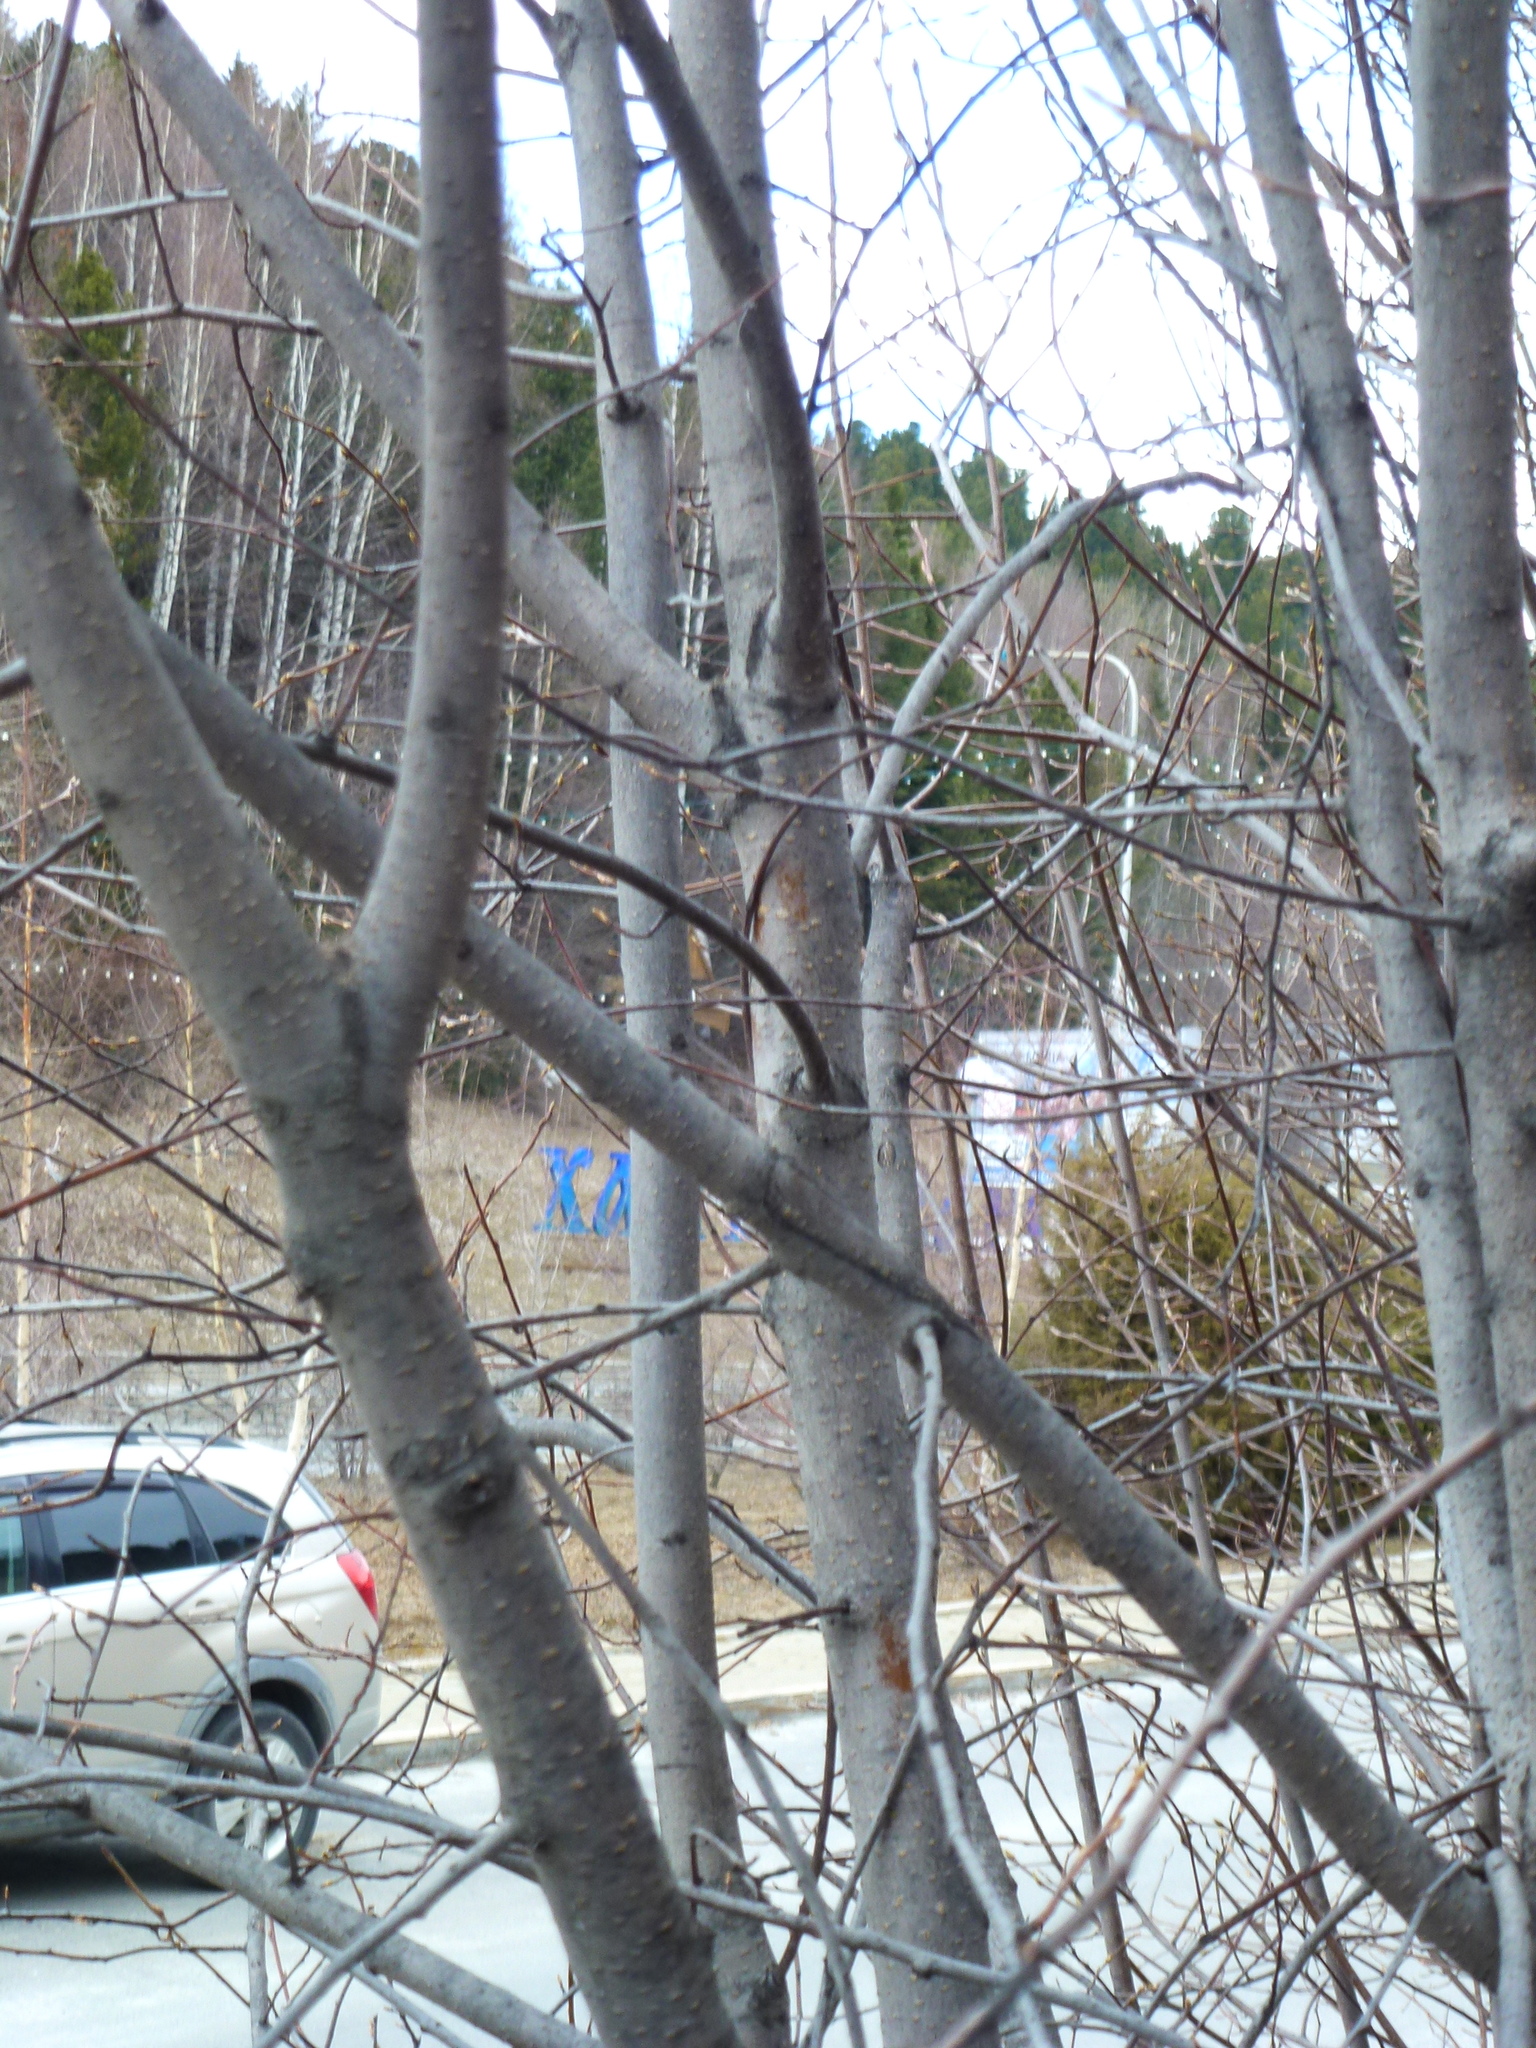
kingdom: Plantae
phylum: Tracheophyta
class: Magnoliopsida
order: Rosales
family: Rosaceae
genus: Prunus
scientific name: Prunus padus
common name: Bird cherry
